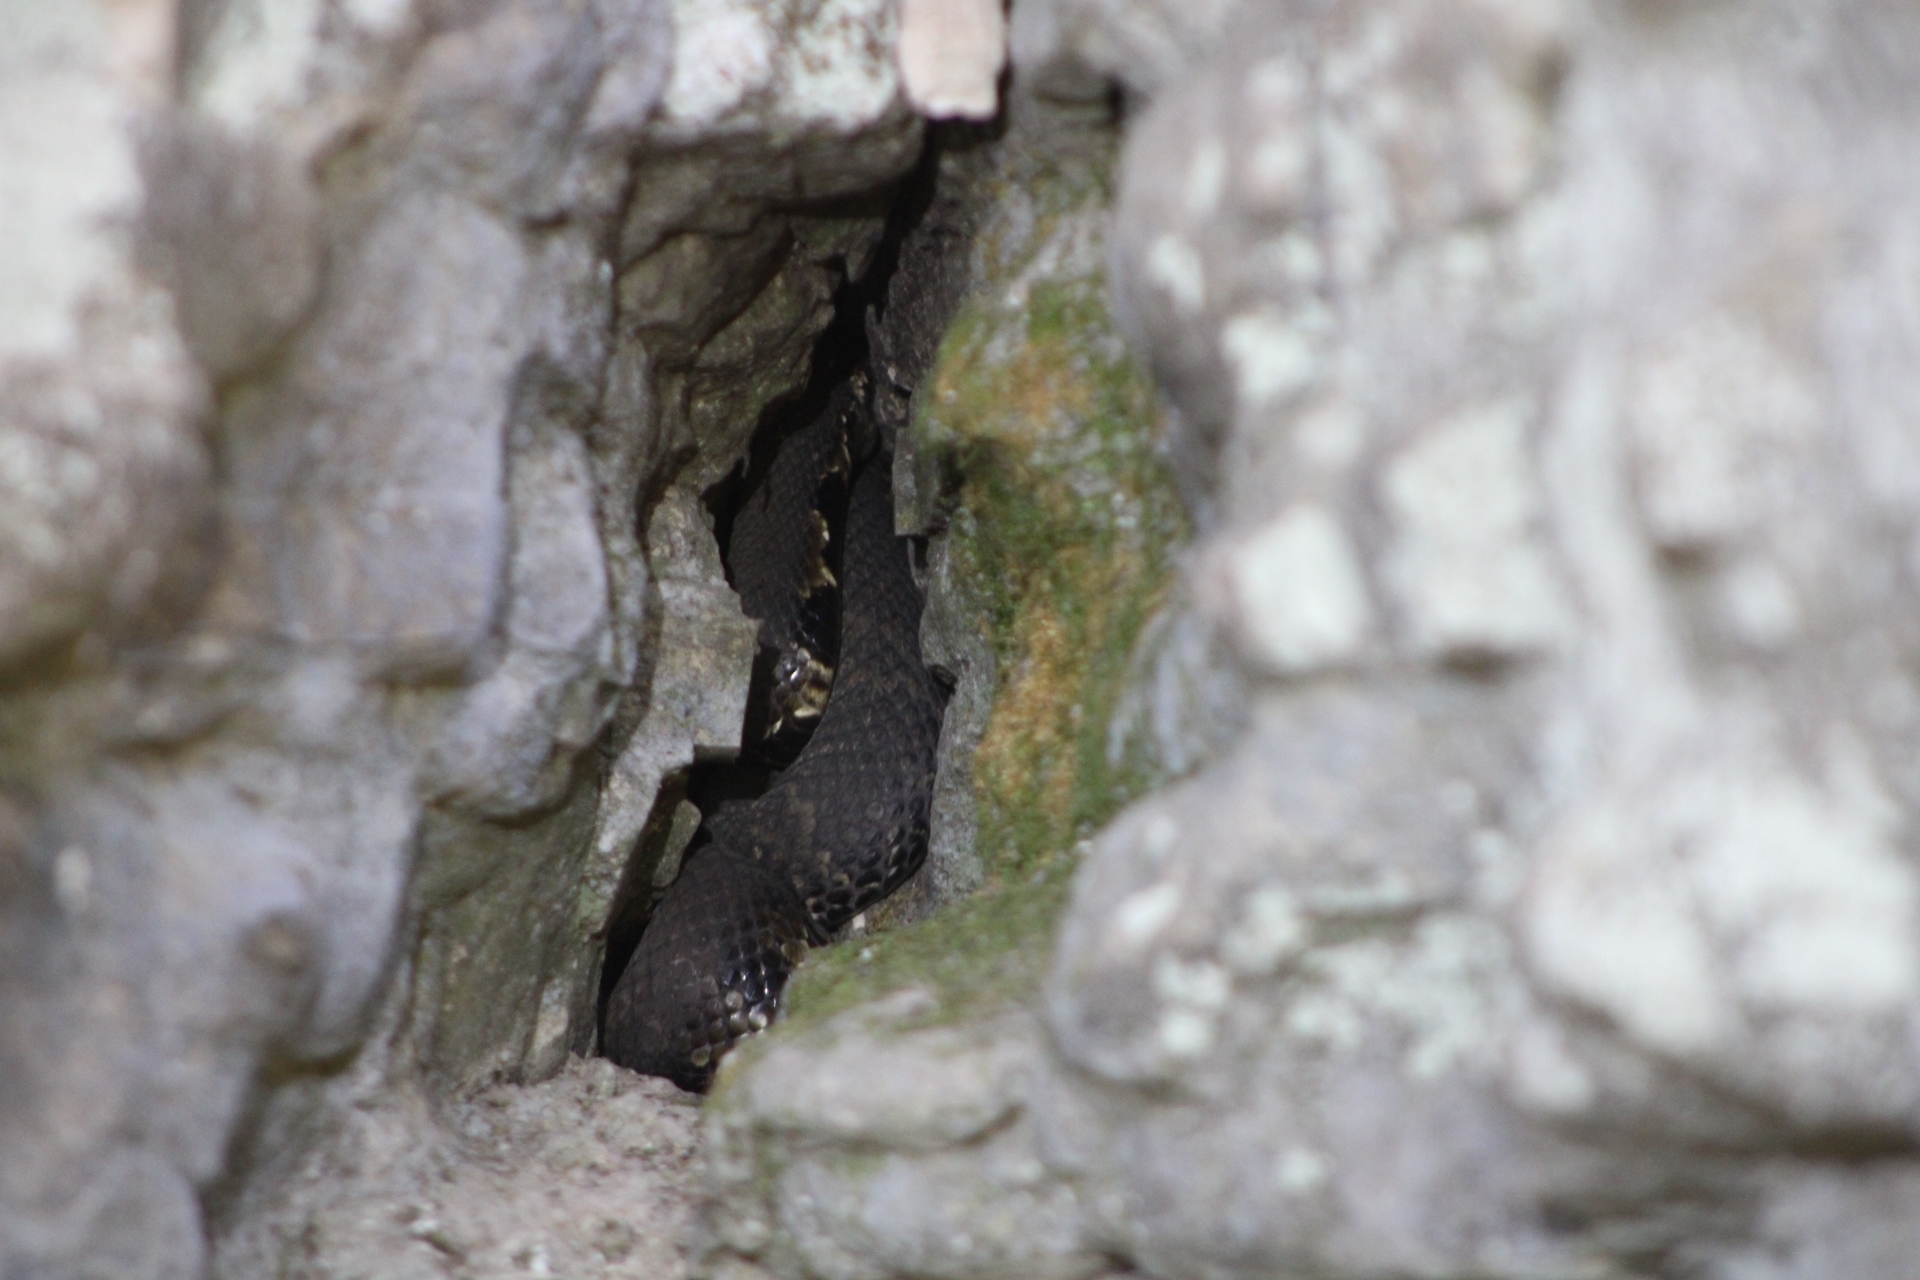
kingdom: Animalia
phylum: Chordata
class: Squamata
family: Viperidae
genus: Agkistrodon
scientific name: Agkistrodon piscivorus
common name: Cottonmouth
